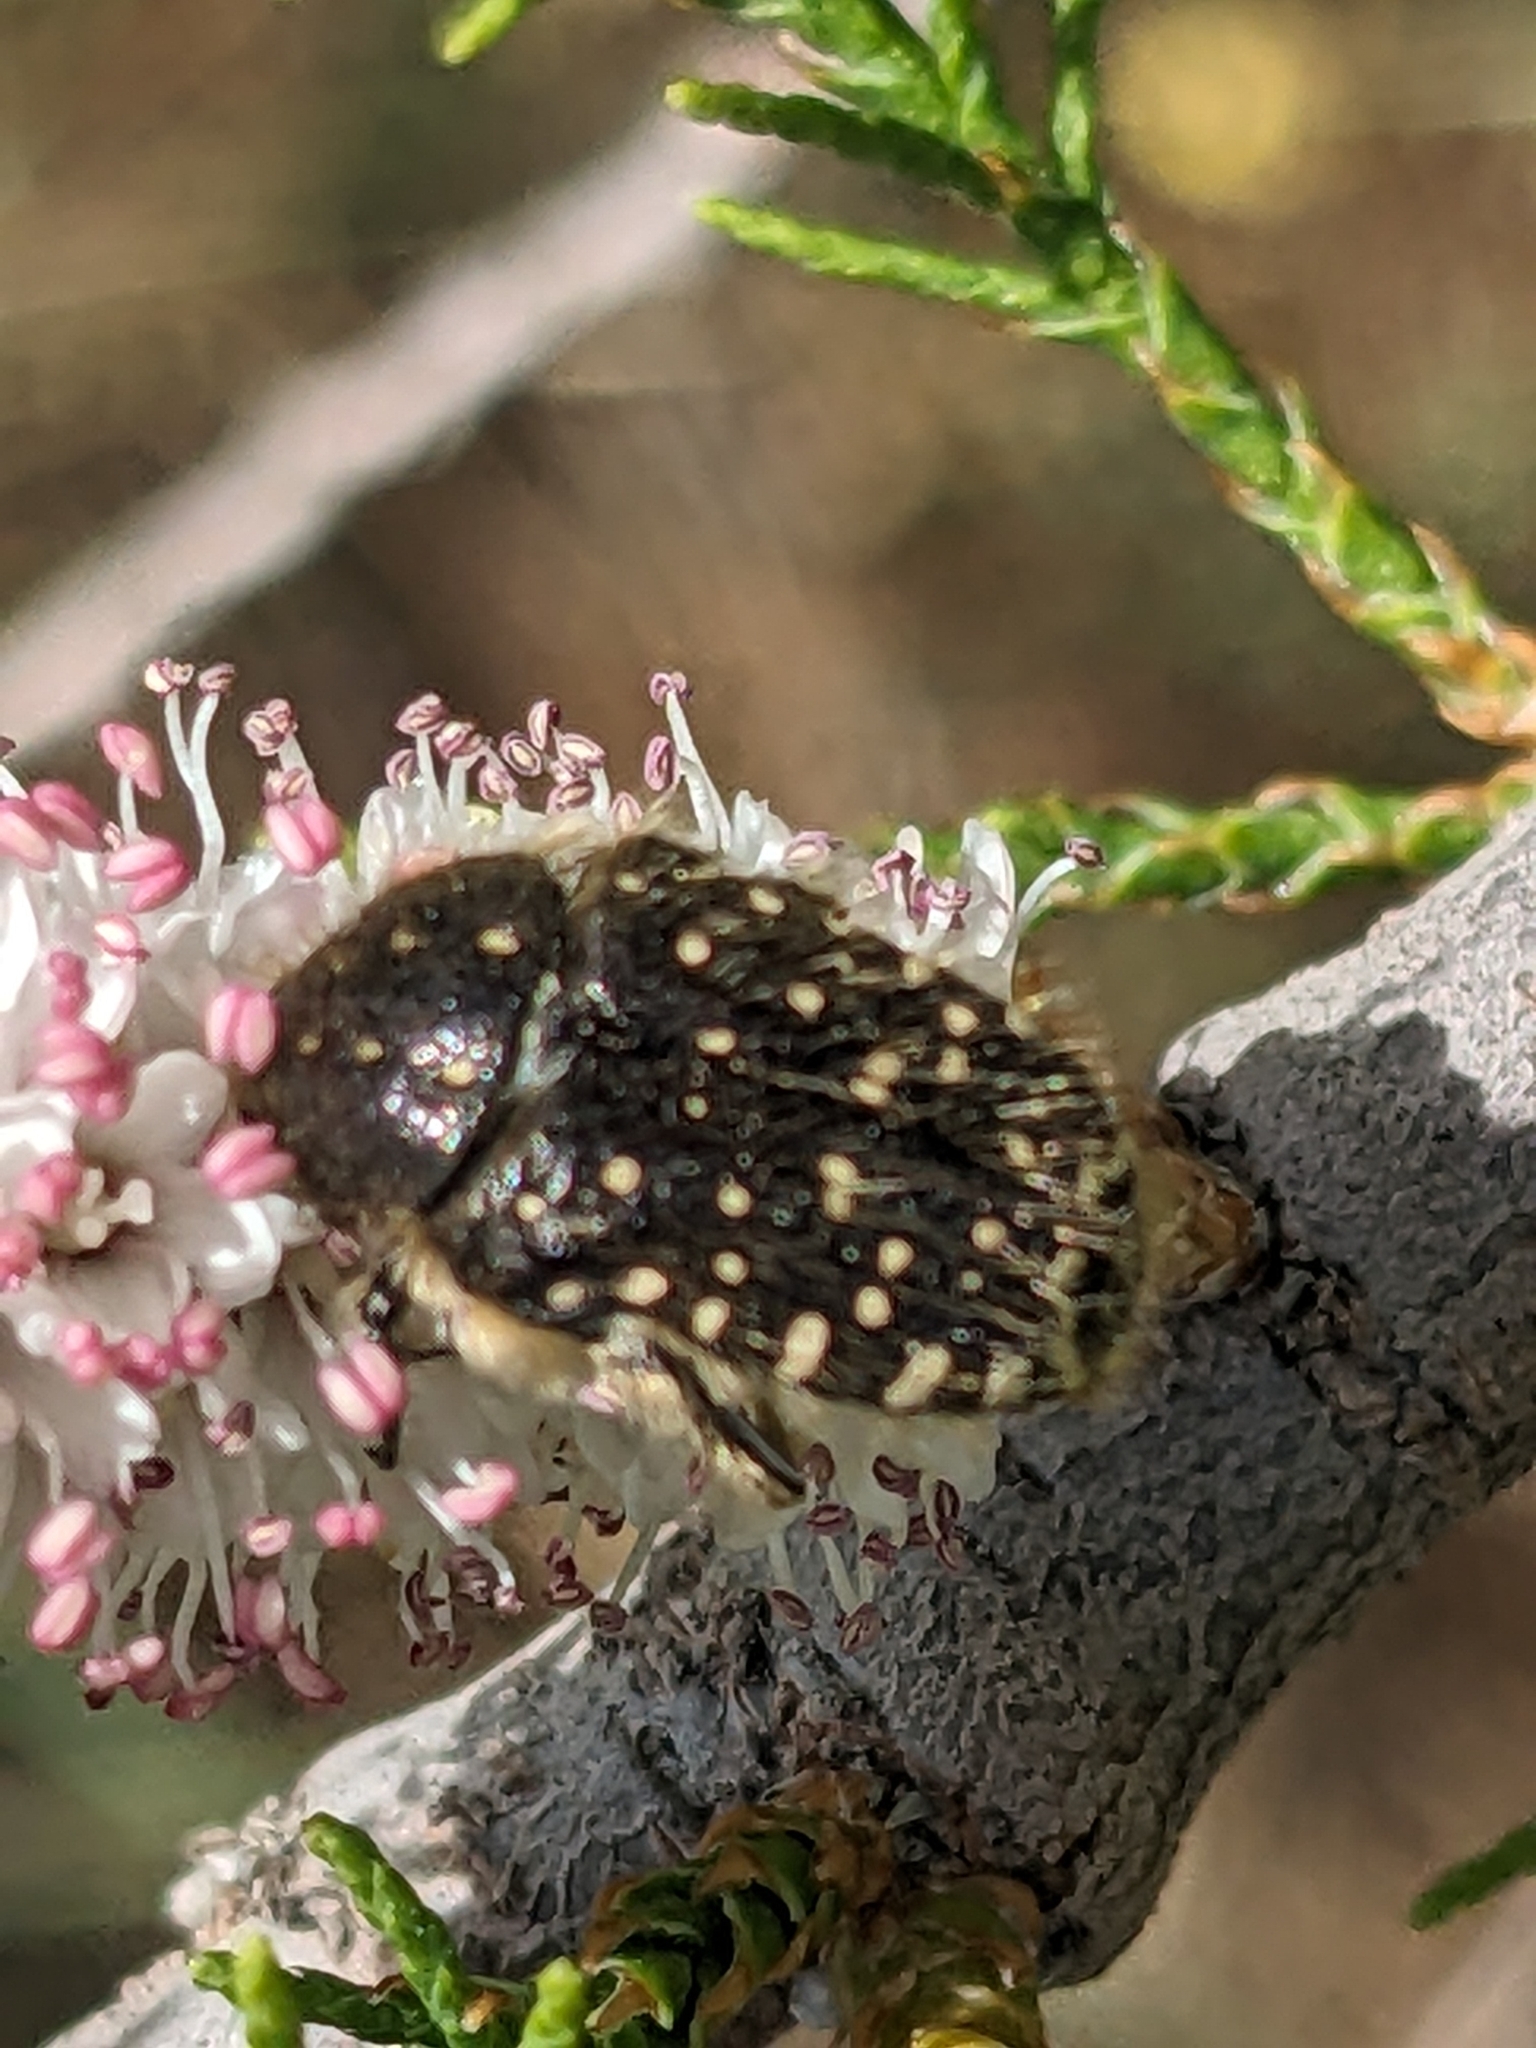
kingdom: Animalia
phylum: Arthropoda
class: Insecta
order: Coleoptera
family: Scarabaeidae
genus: Oxythyrea
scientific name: Oxythyrea funesta
